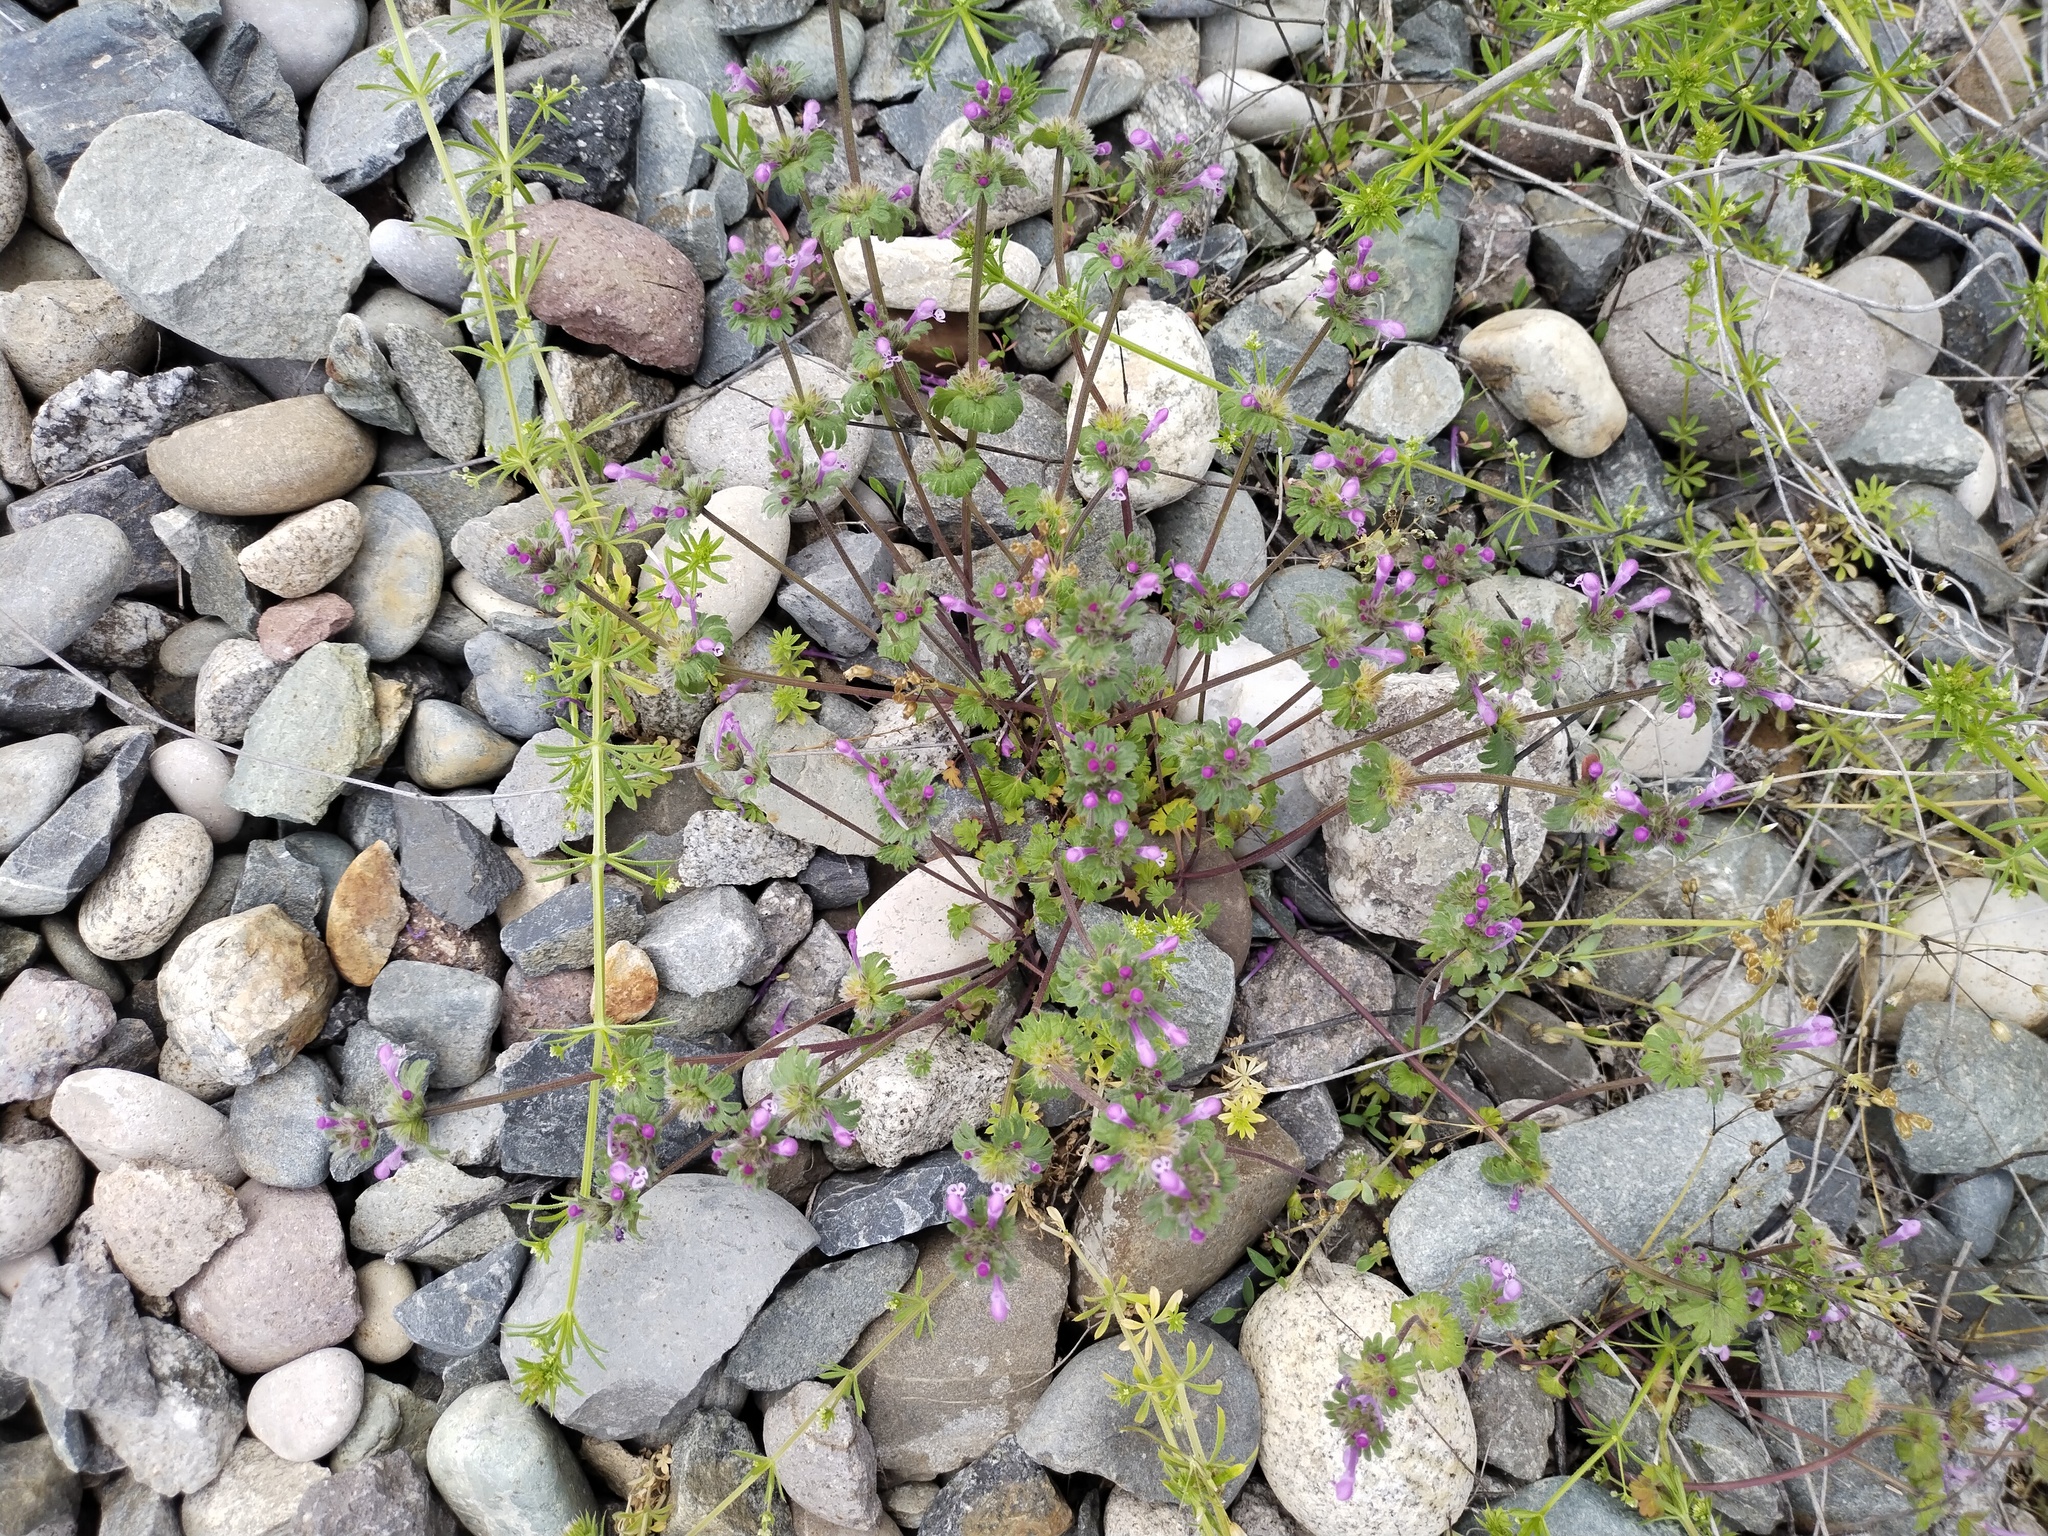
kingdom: Plantae
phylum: Tracheophyta
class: Magnoliopsida
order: Lamiales
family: Lamiaceae
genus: Lamium
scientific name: Lamium amplexicaule
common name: Henbit dead-nettle
